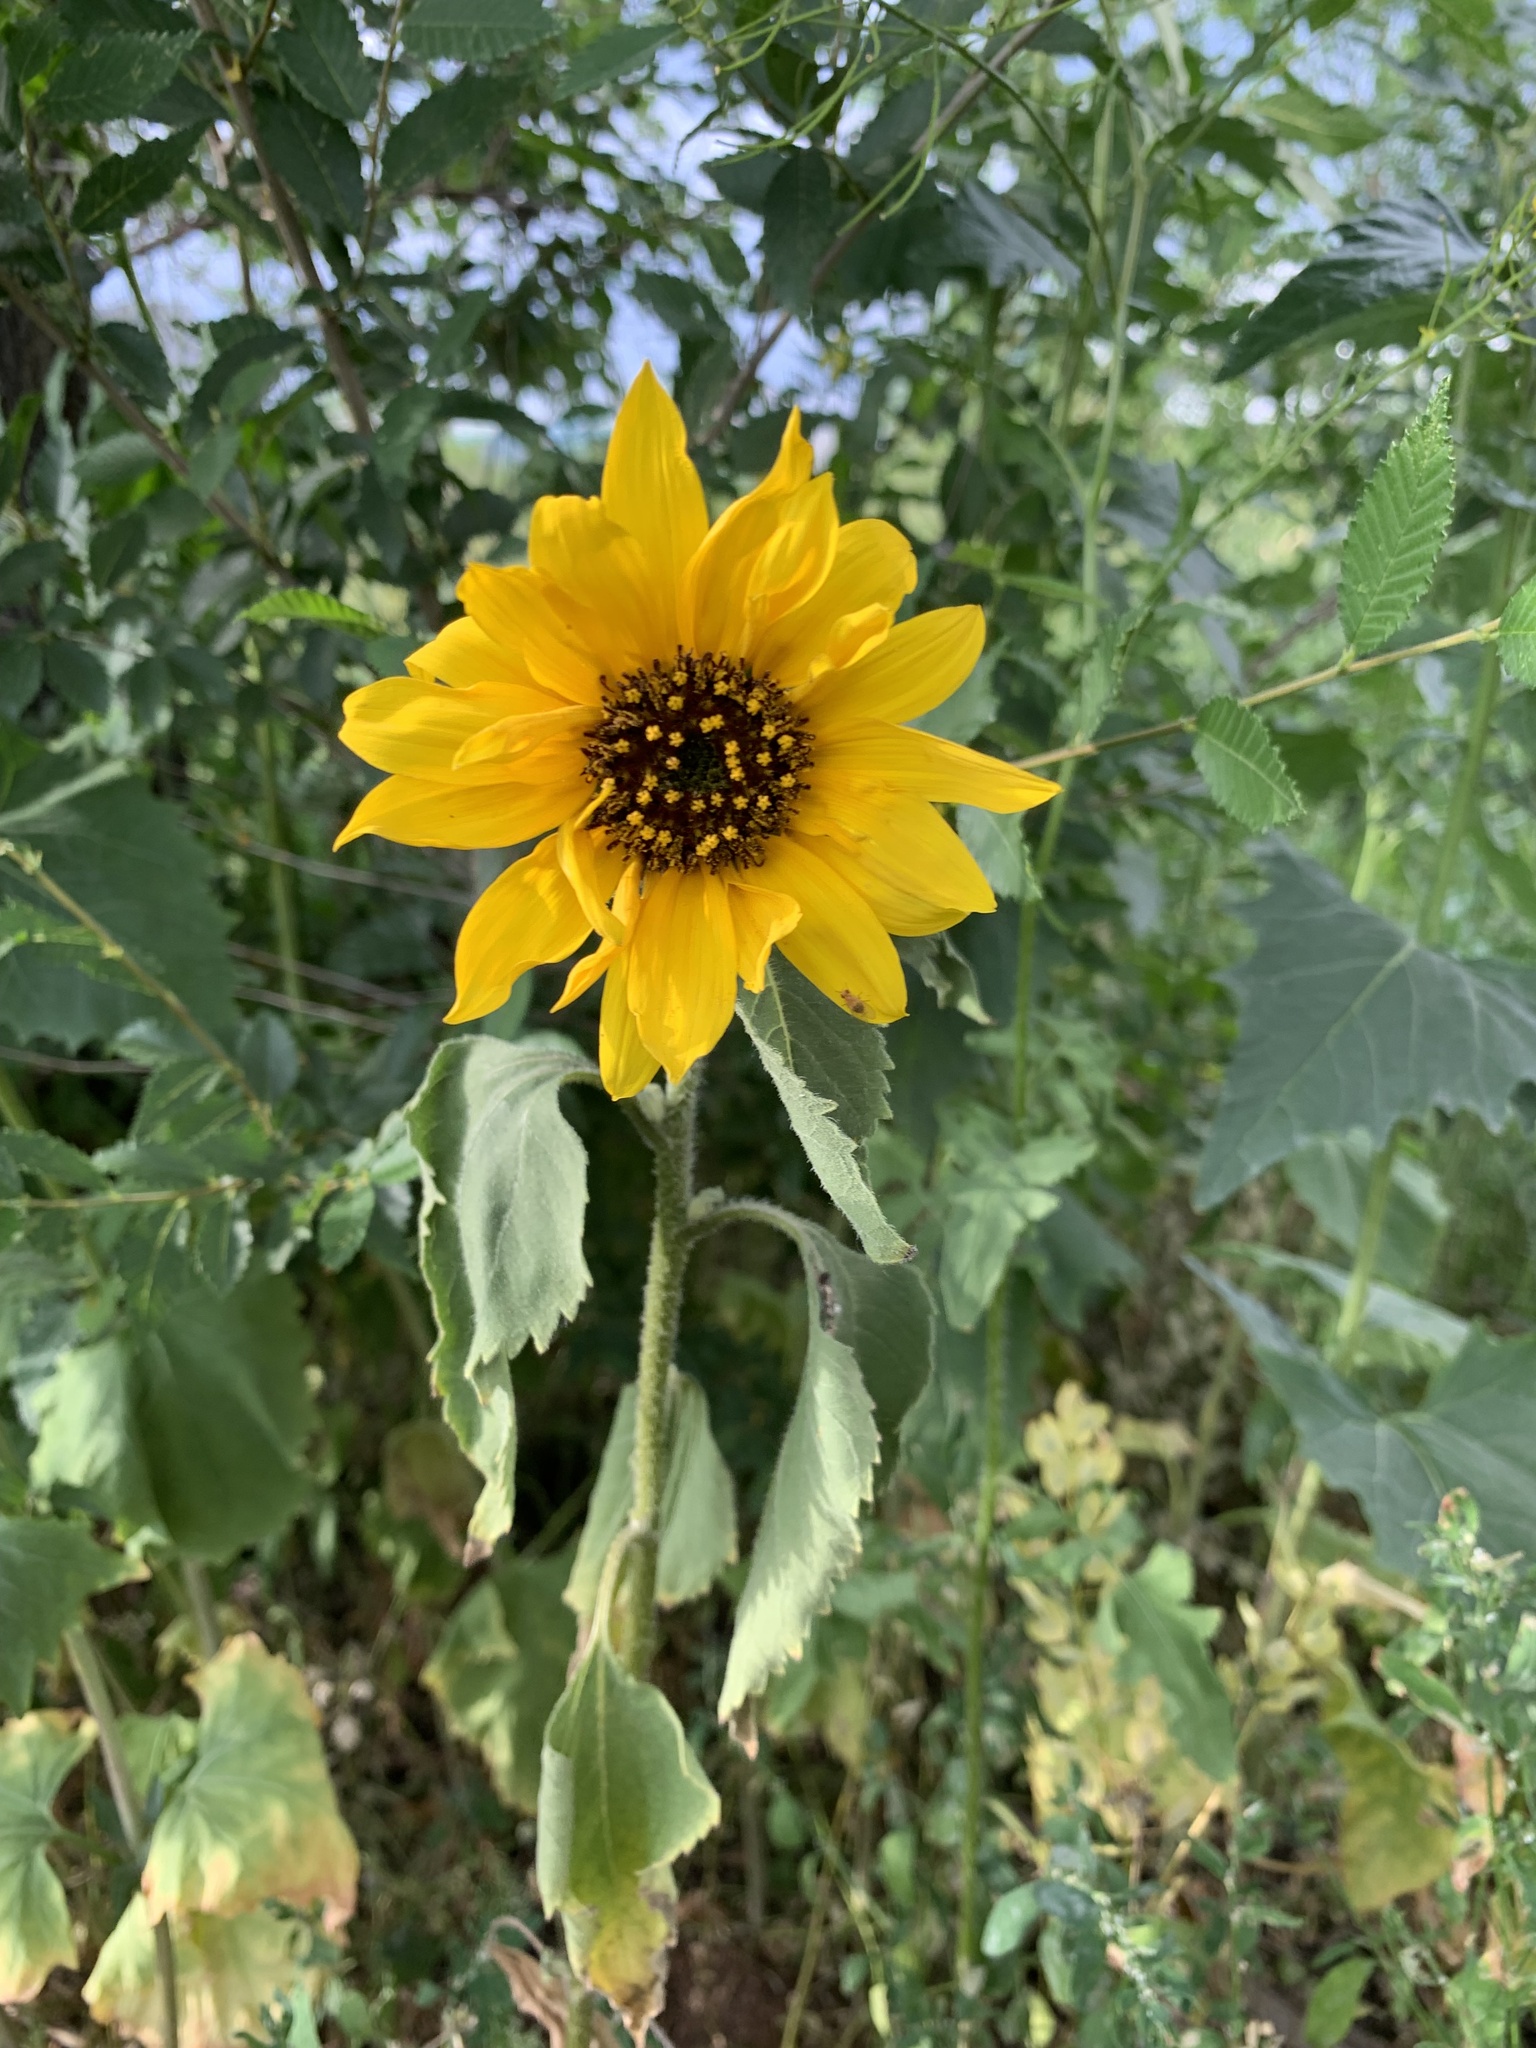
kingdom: Plantae
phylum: Tracheophyta
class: Magnoliopsida
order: Asterales
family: Asteraceae
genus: Helianthus
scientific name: Helianthus annuus
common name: Sunflower
